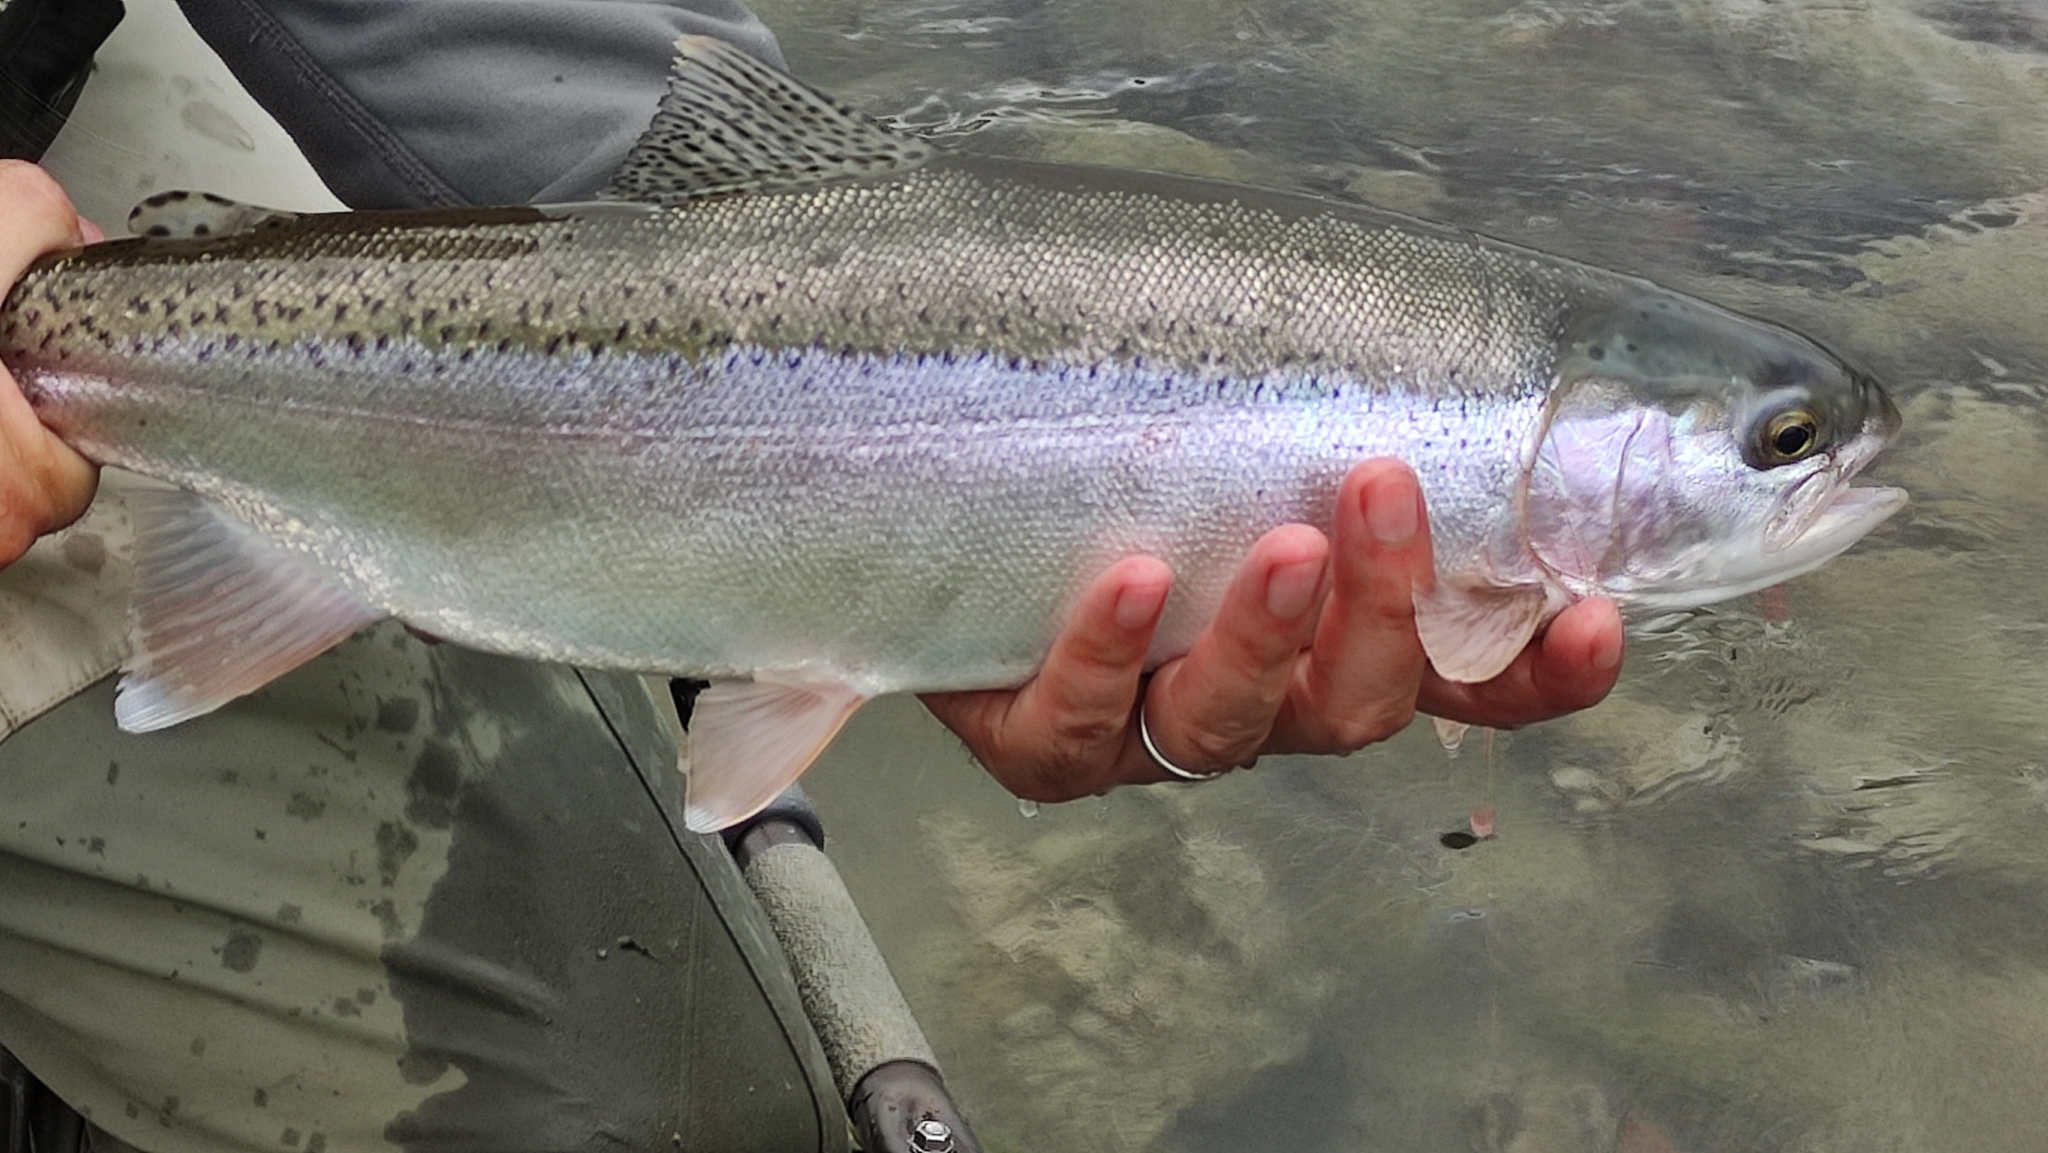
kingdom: Animalia
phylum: Chordata
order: Salmoniformes
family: Salmonidae
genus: Oncorhynchus
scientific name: Oncorhynchus mykiss
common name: Rainbow trout
